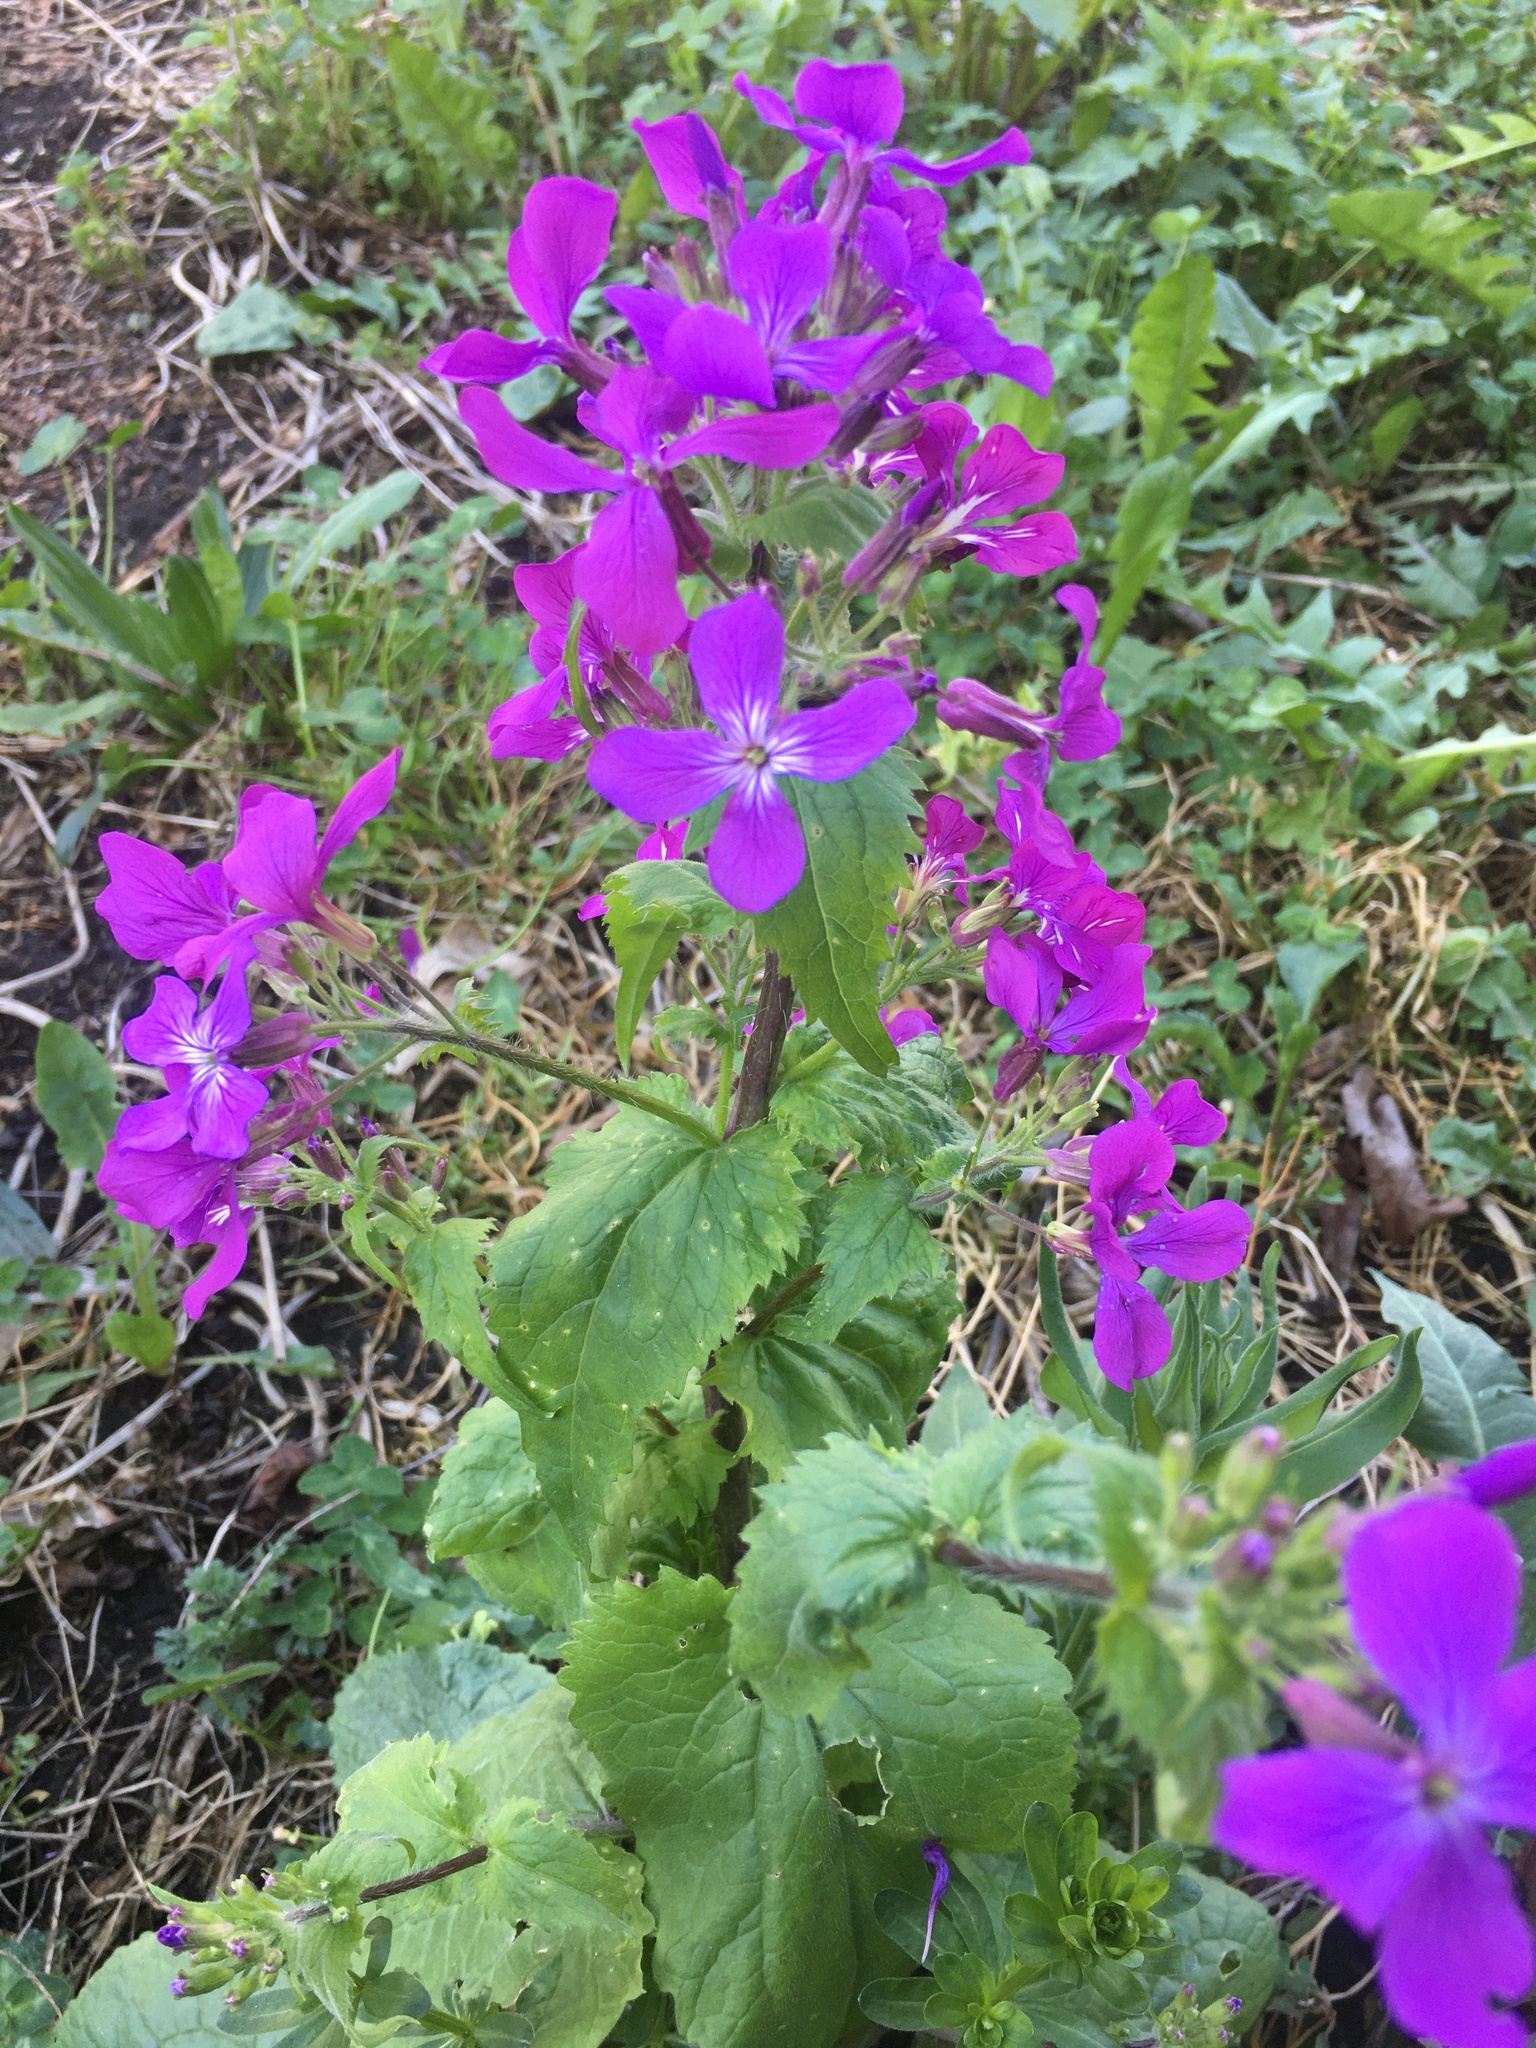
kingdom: Plantae
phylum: Tracheophyta
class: Magnoliopsida
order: Brassicales
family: Brassicaceae
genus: Lunaria
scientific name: Lunaria annua
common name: Honesty
